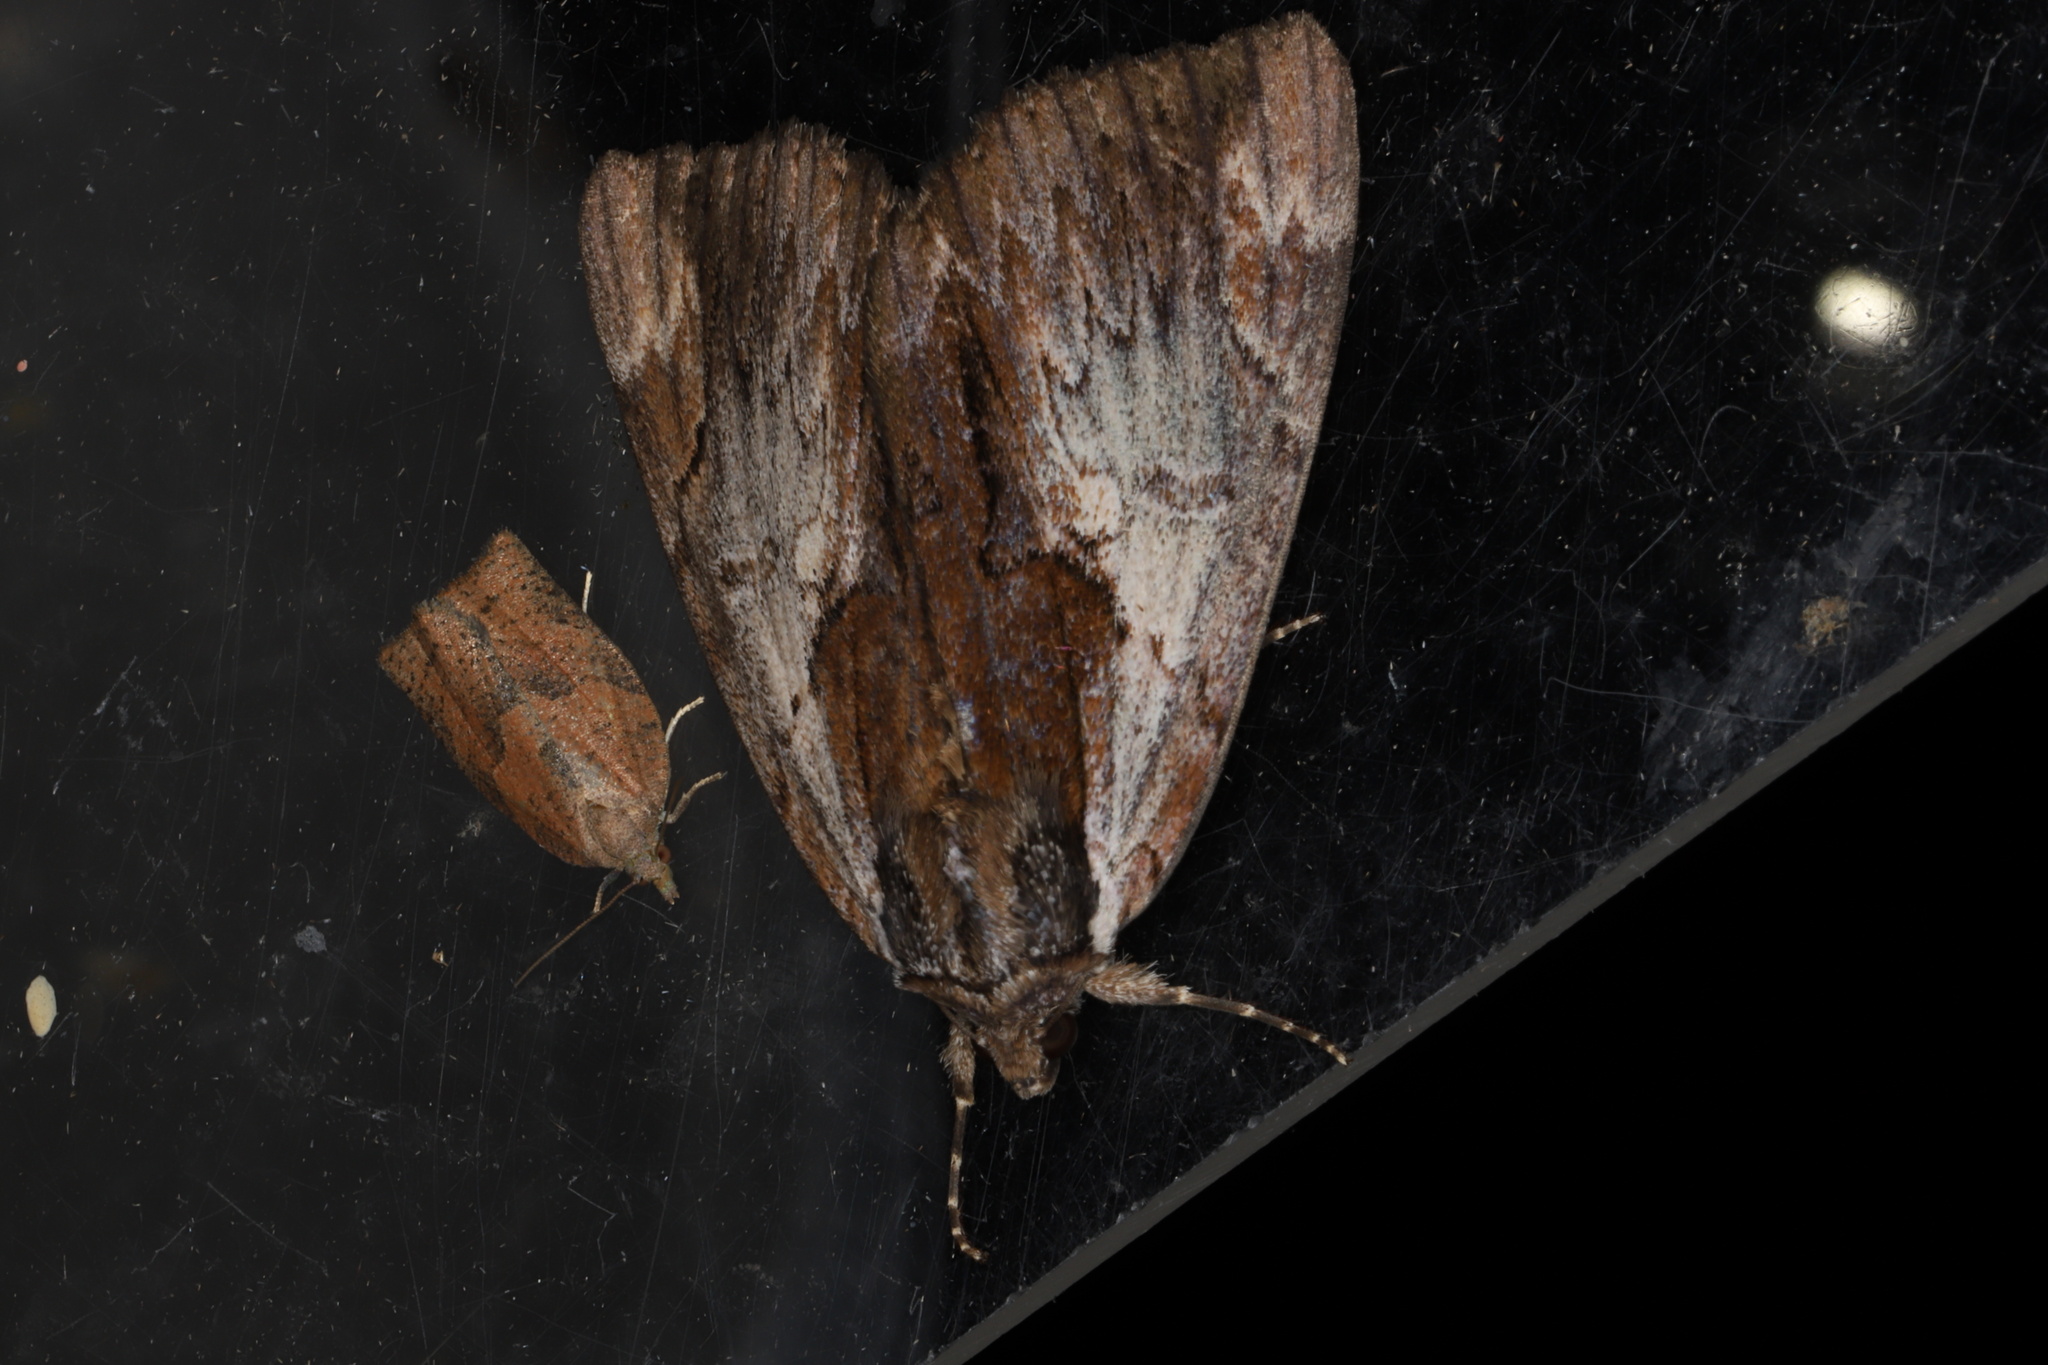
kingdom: Animalia
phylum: Arthropoda
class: Insecta
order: Lepidoptera
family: Erebidae
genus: Catocala
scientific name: Catocala ultronia
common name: Ultronia underwing
